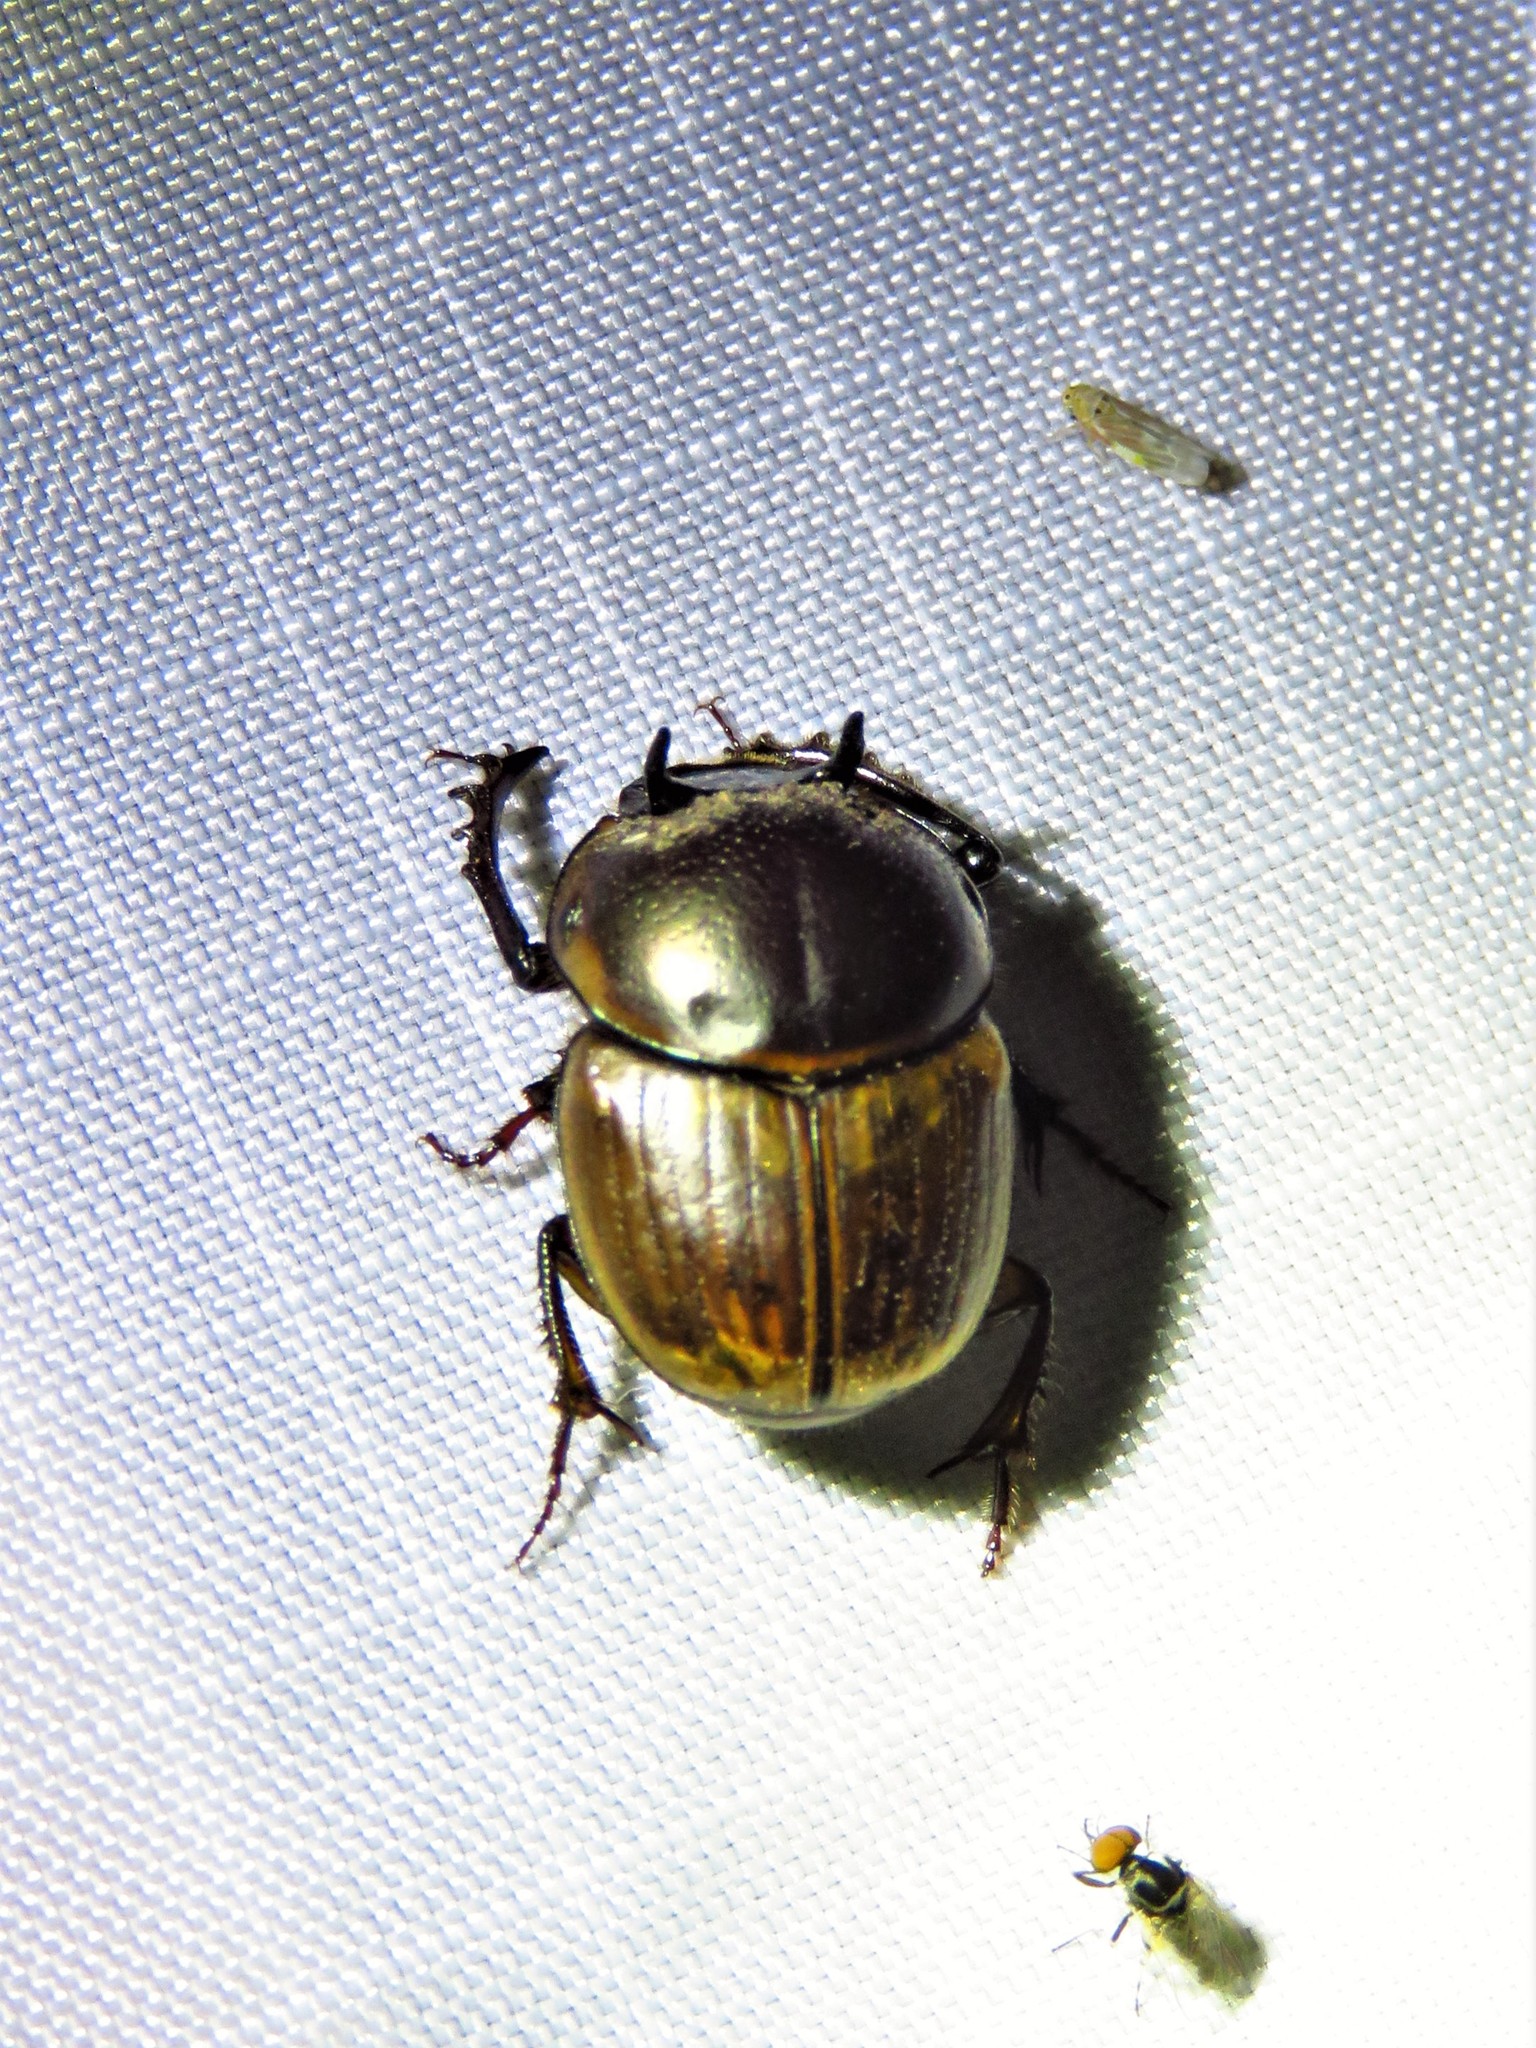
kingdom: Animalia
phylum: Arthropoda
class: Insecta
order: Coleoptera
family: Scarabaeidae
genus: Digitonthophagus
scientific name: Digitonthophagus gazella
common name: Brown dung beetle
